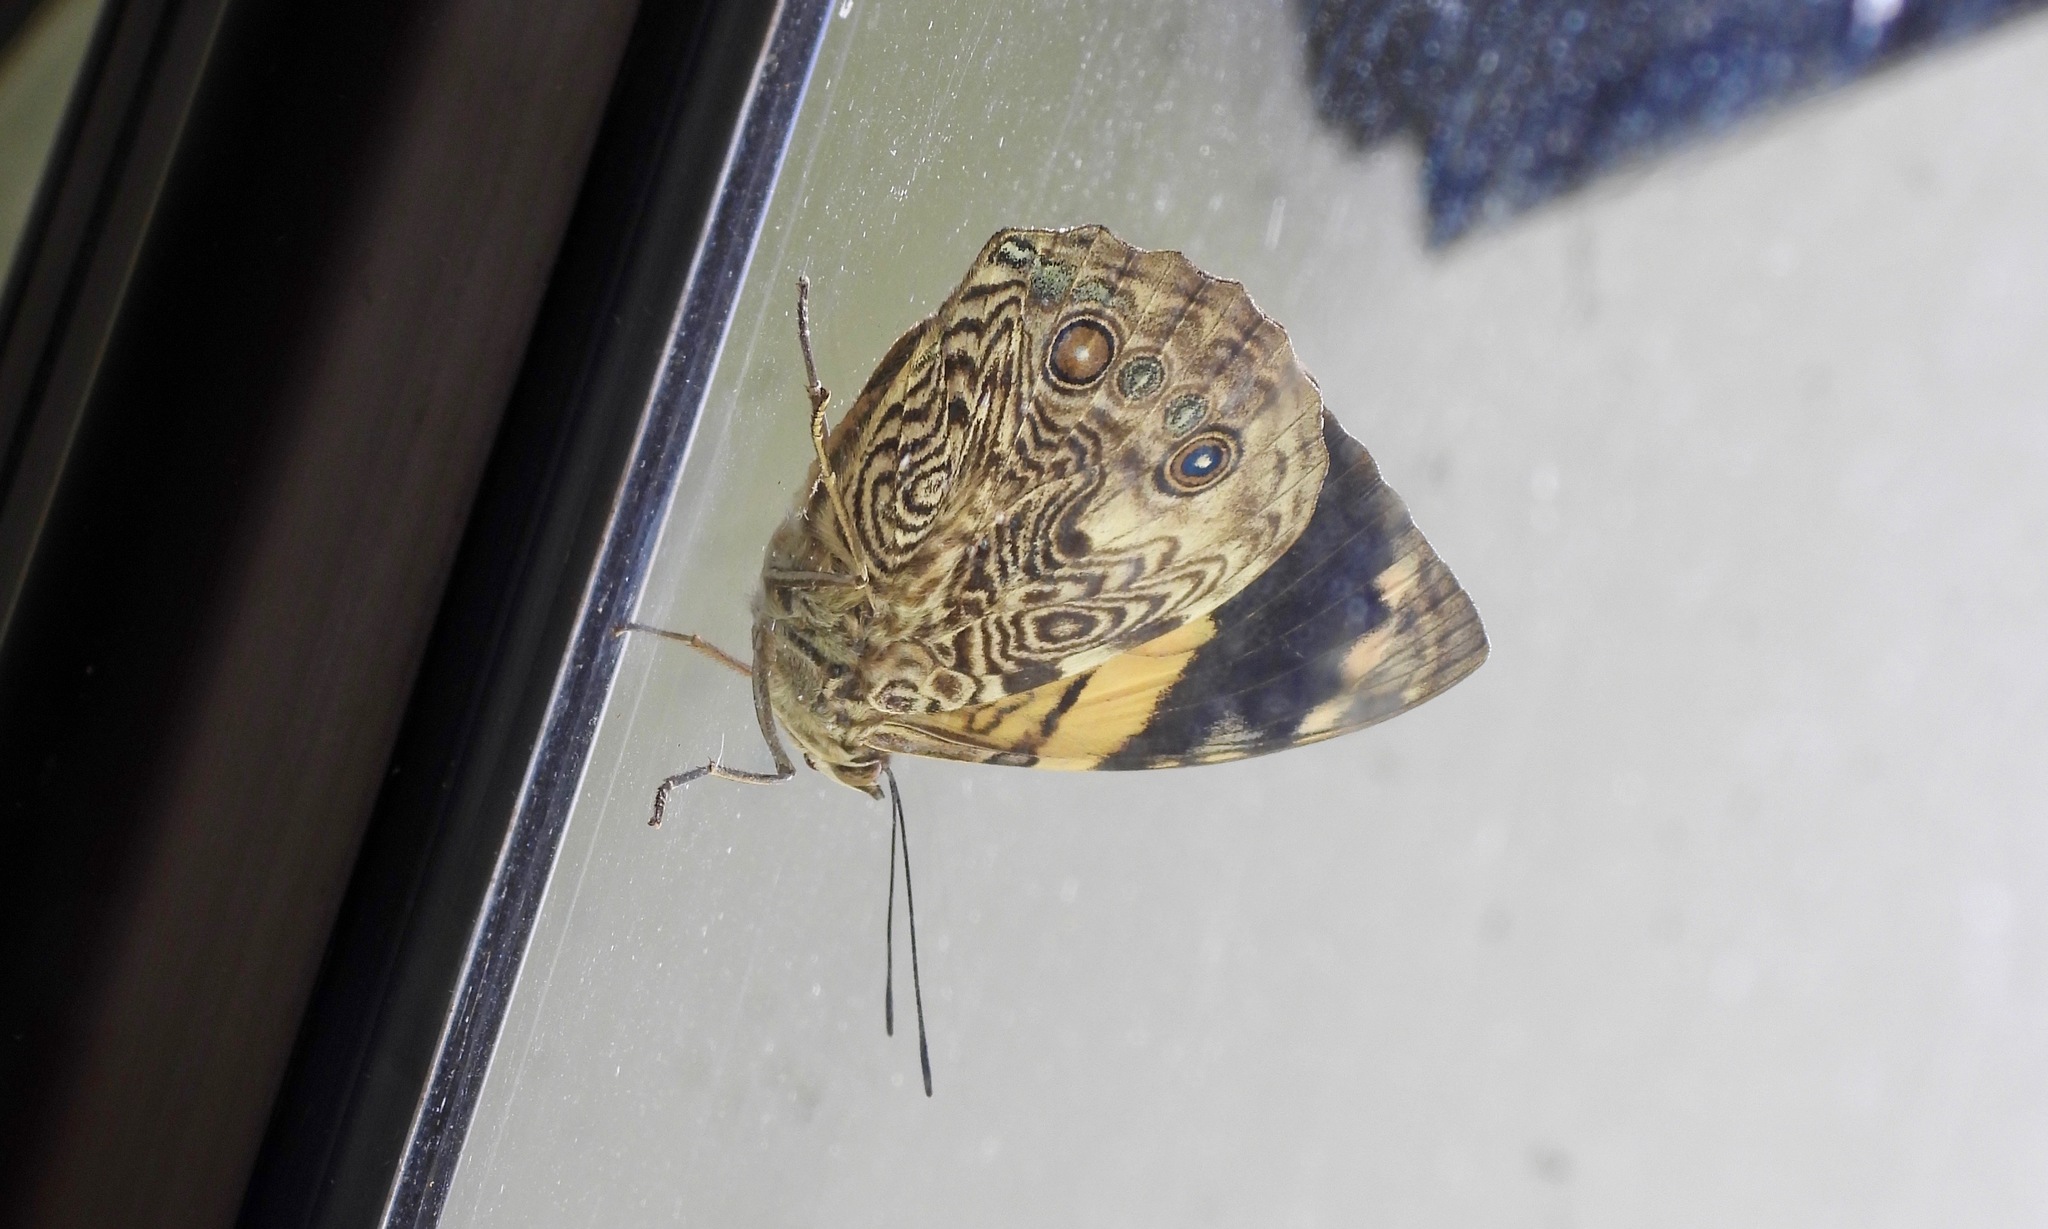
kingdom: Animalia
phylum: Arthropoda
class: Insecta
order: Lepidoptera
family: Nymphalidae
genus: Smyrna
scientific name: Smyrna karwinskii
